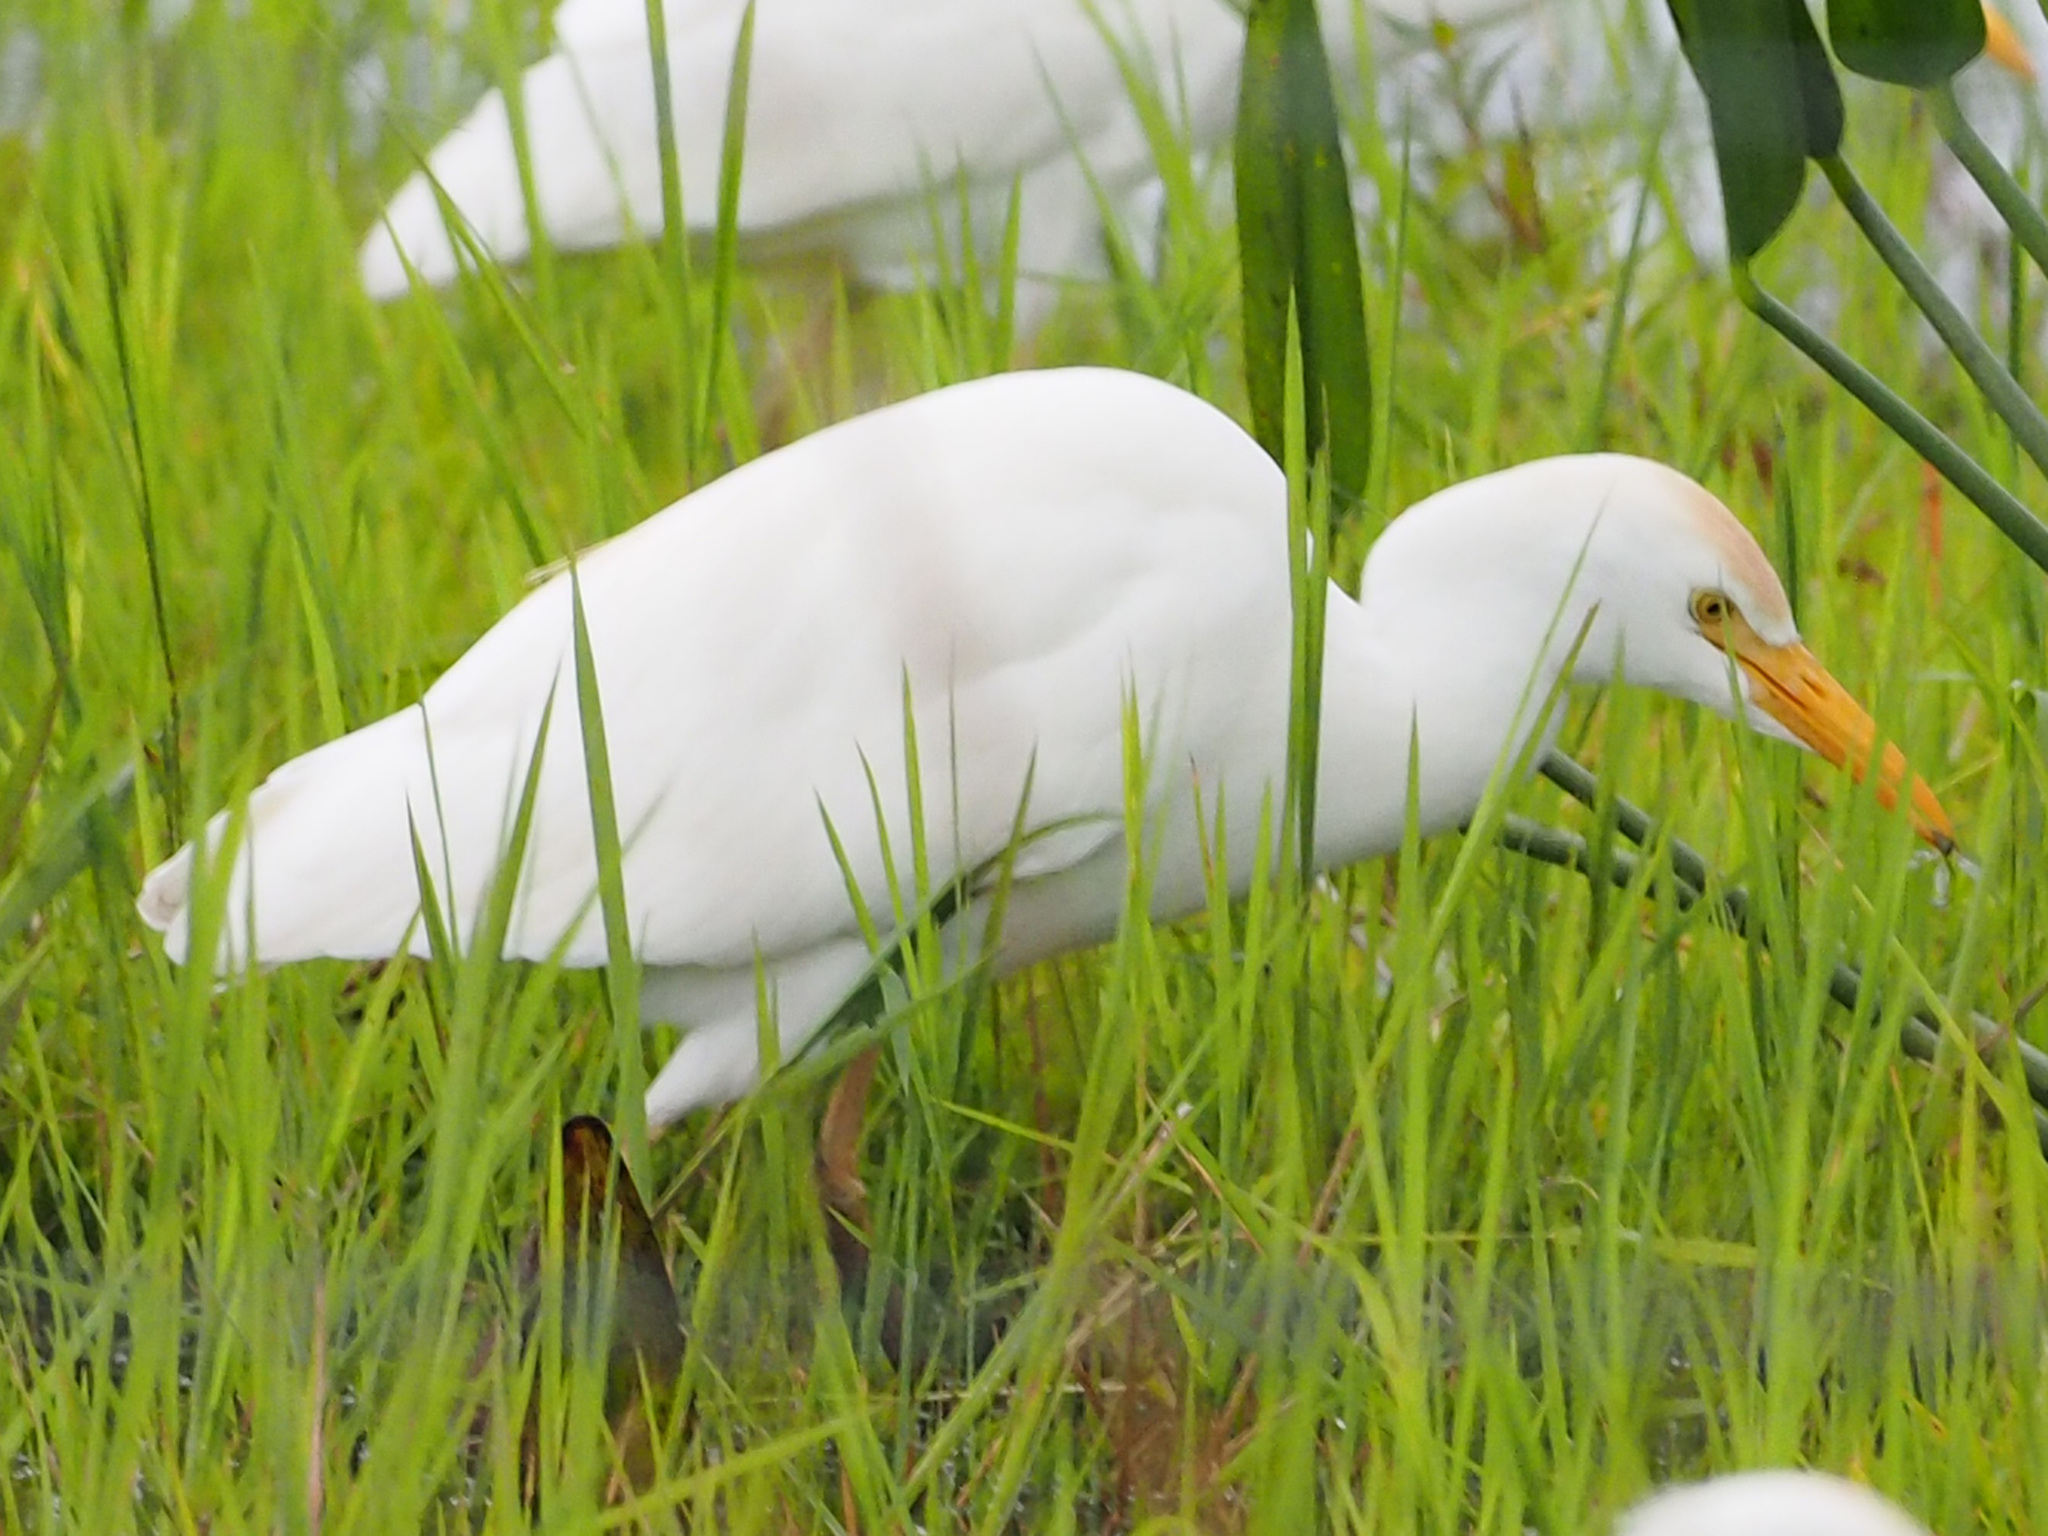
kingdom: Animalia
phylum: Chordata
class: Aves
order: Pelecaniformes
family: Ardeidae
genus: Bubulcus
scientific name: Bubulcus ibis
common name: Cattle egret
